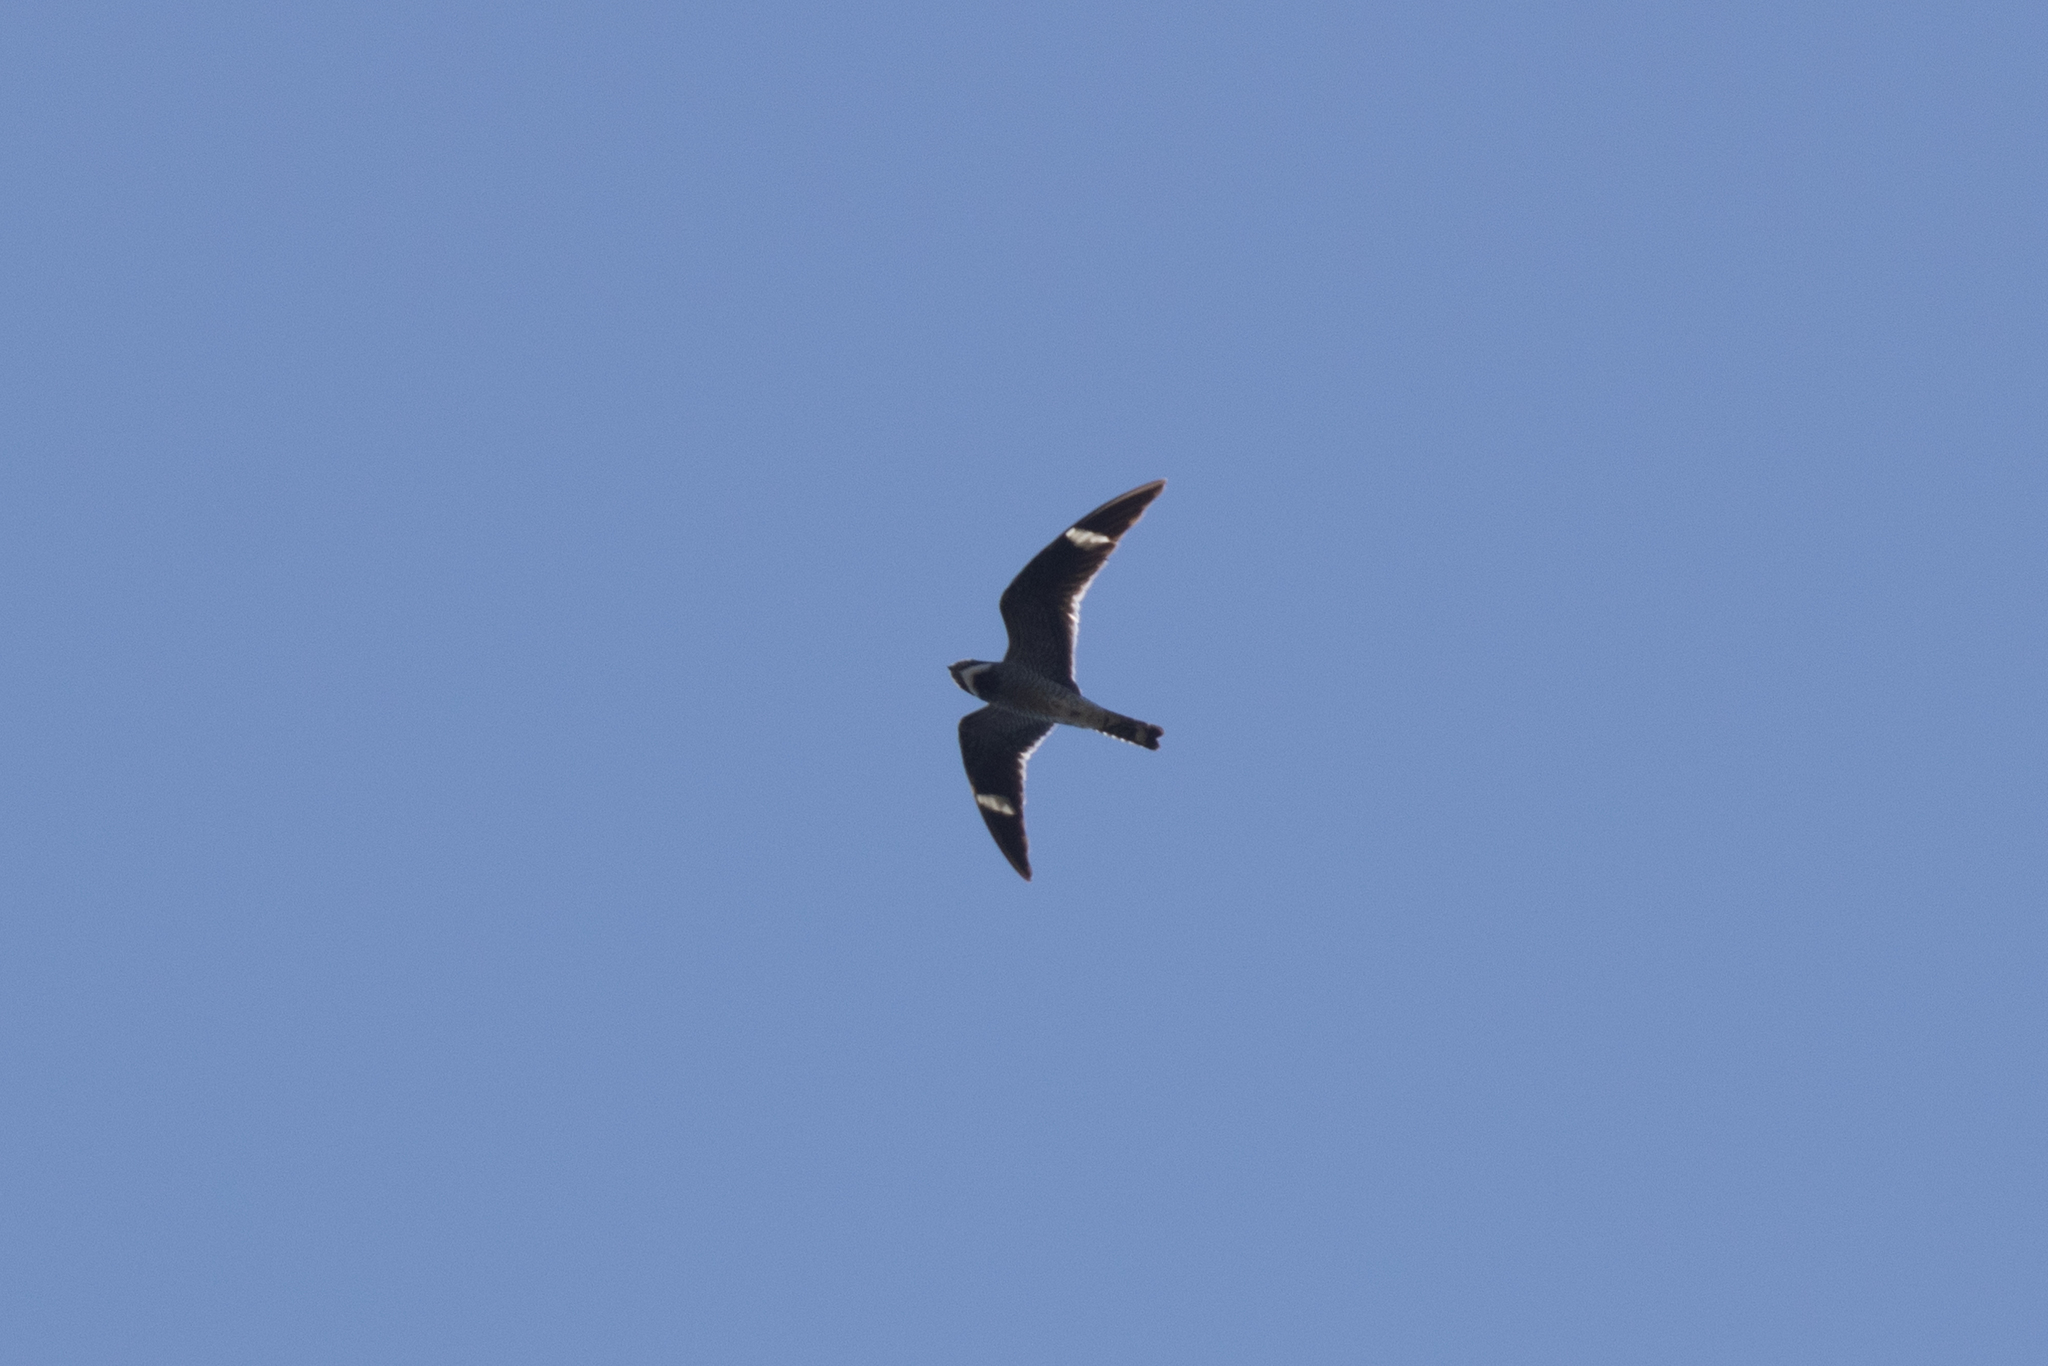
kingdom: Animalia
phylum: Chordata
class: Aves
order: Caprimulgiformes
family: Caprimulgidae
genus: Chordeiles
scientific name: Chordeiles minor
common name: Common nighthawk
